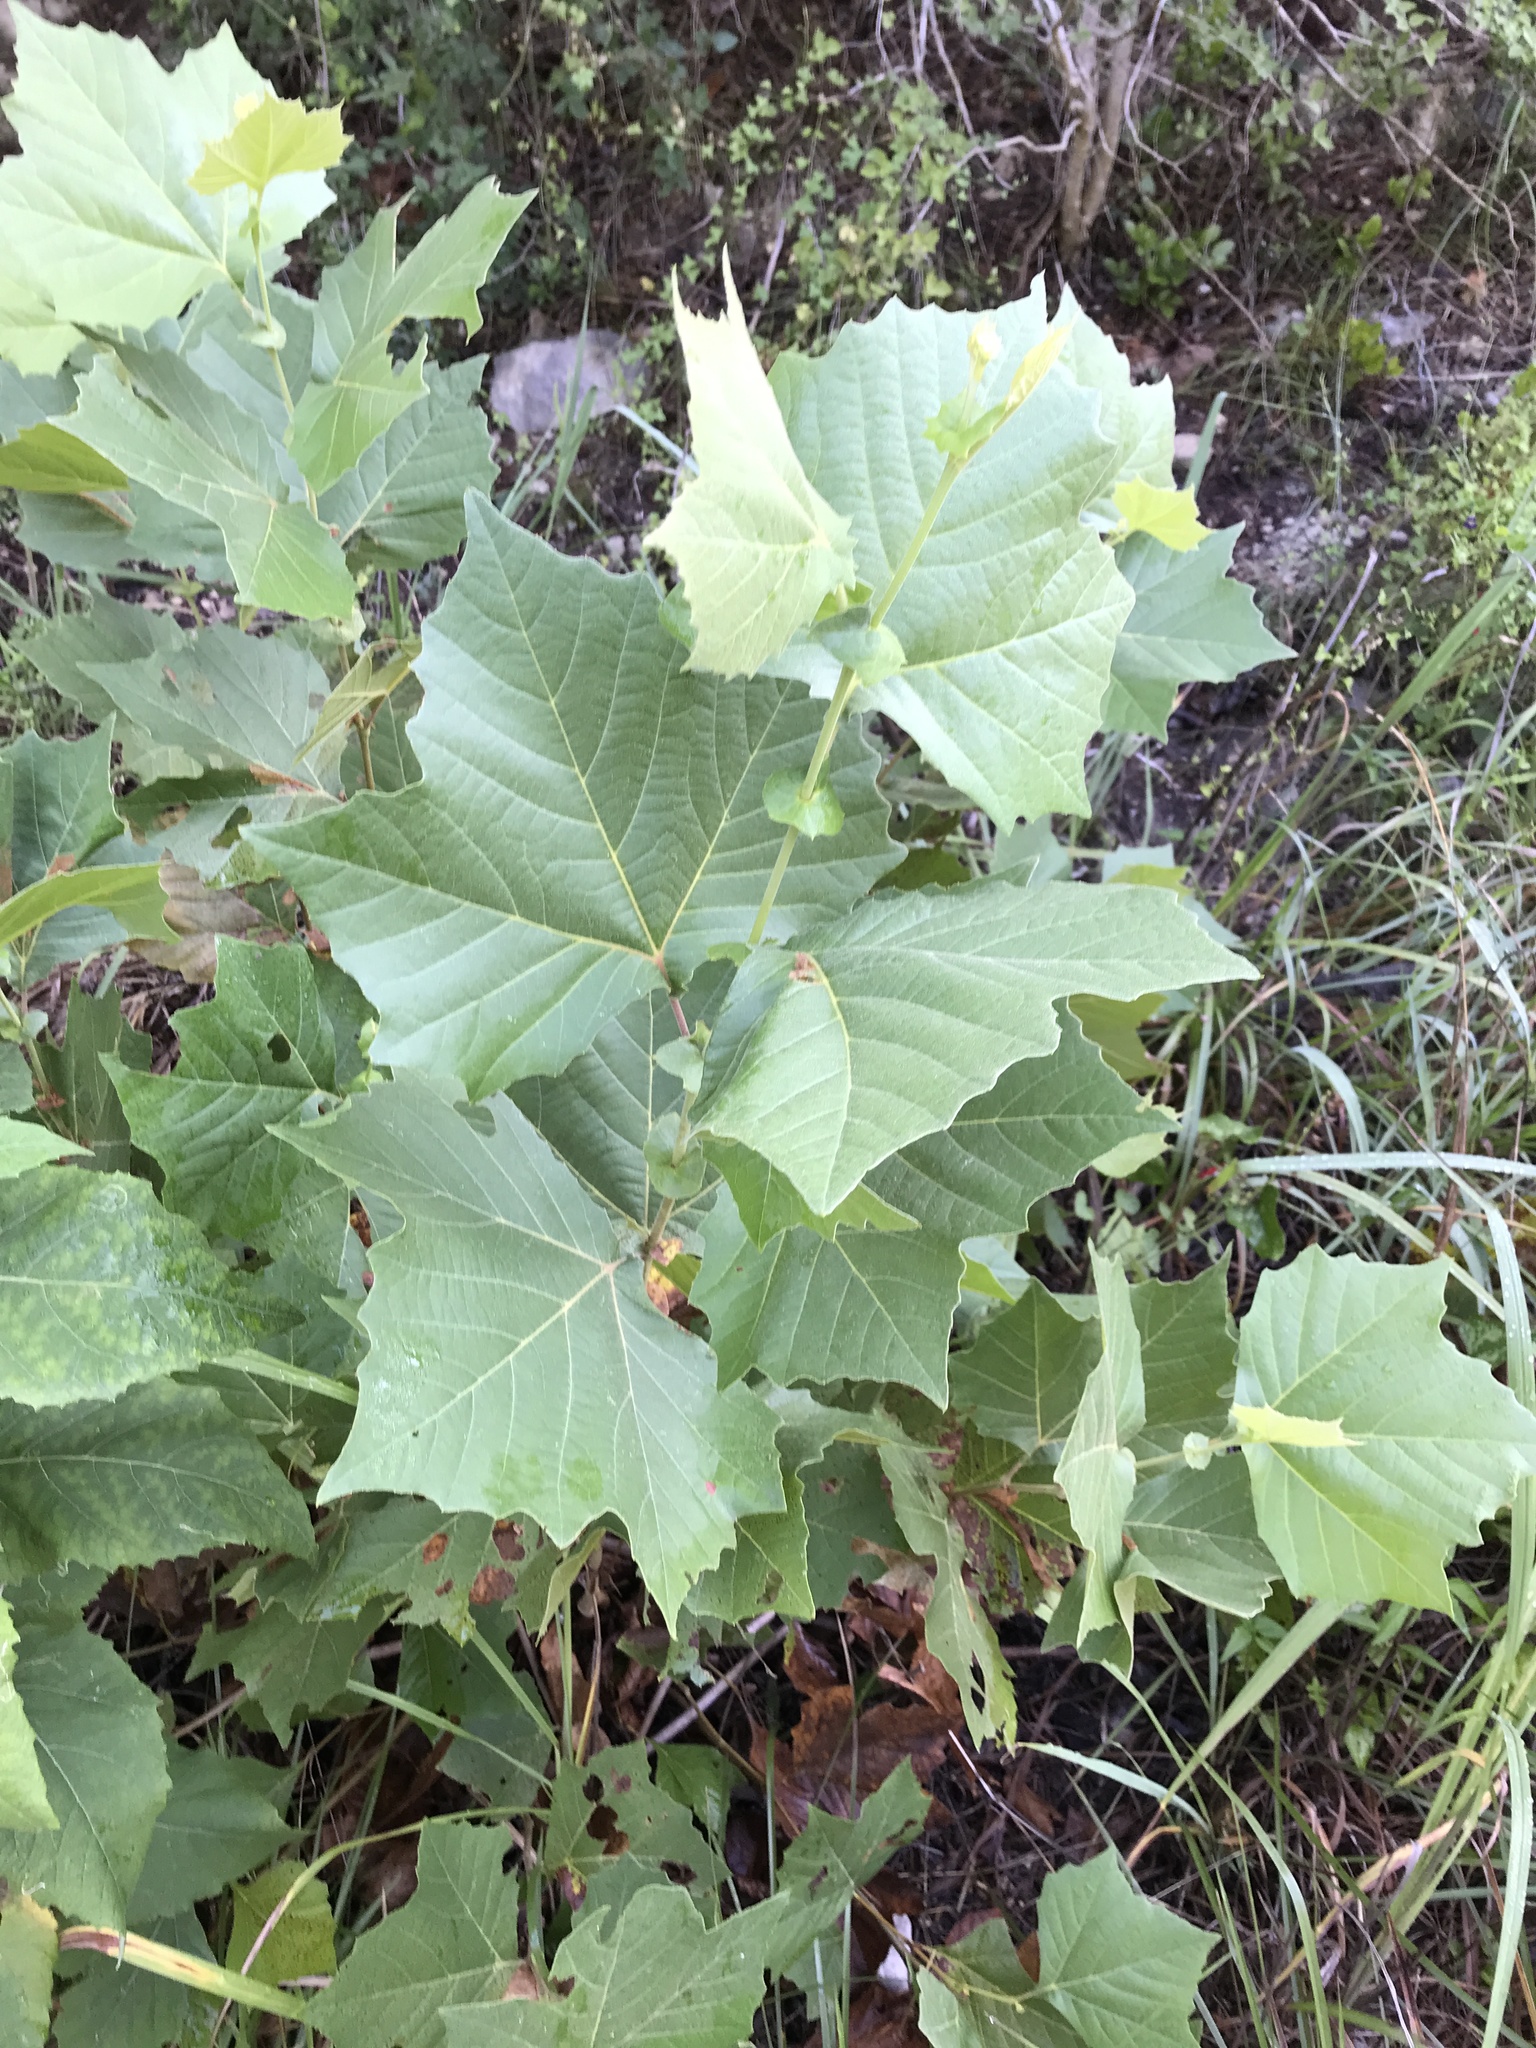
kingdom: Plantae
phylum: Tracheophyta
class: Magnoliopsida
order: Proteales
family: Platanaceae
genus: Platanus
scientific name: Platanus occidentalis
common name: American sycamore
